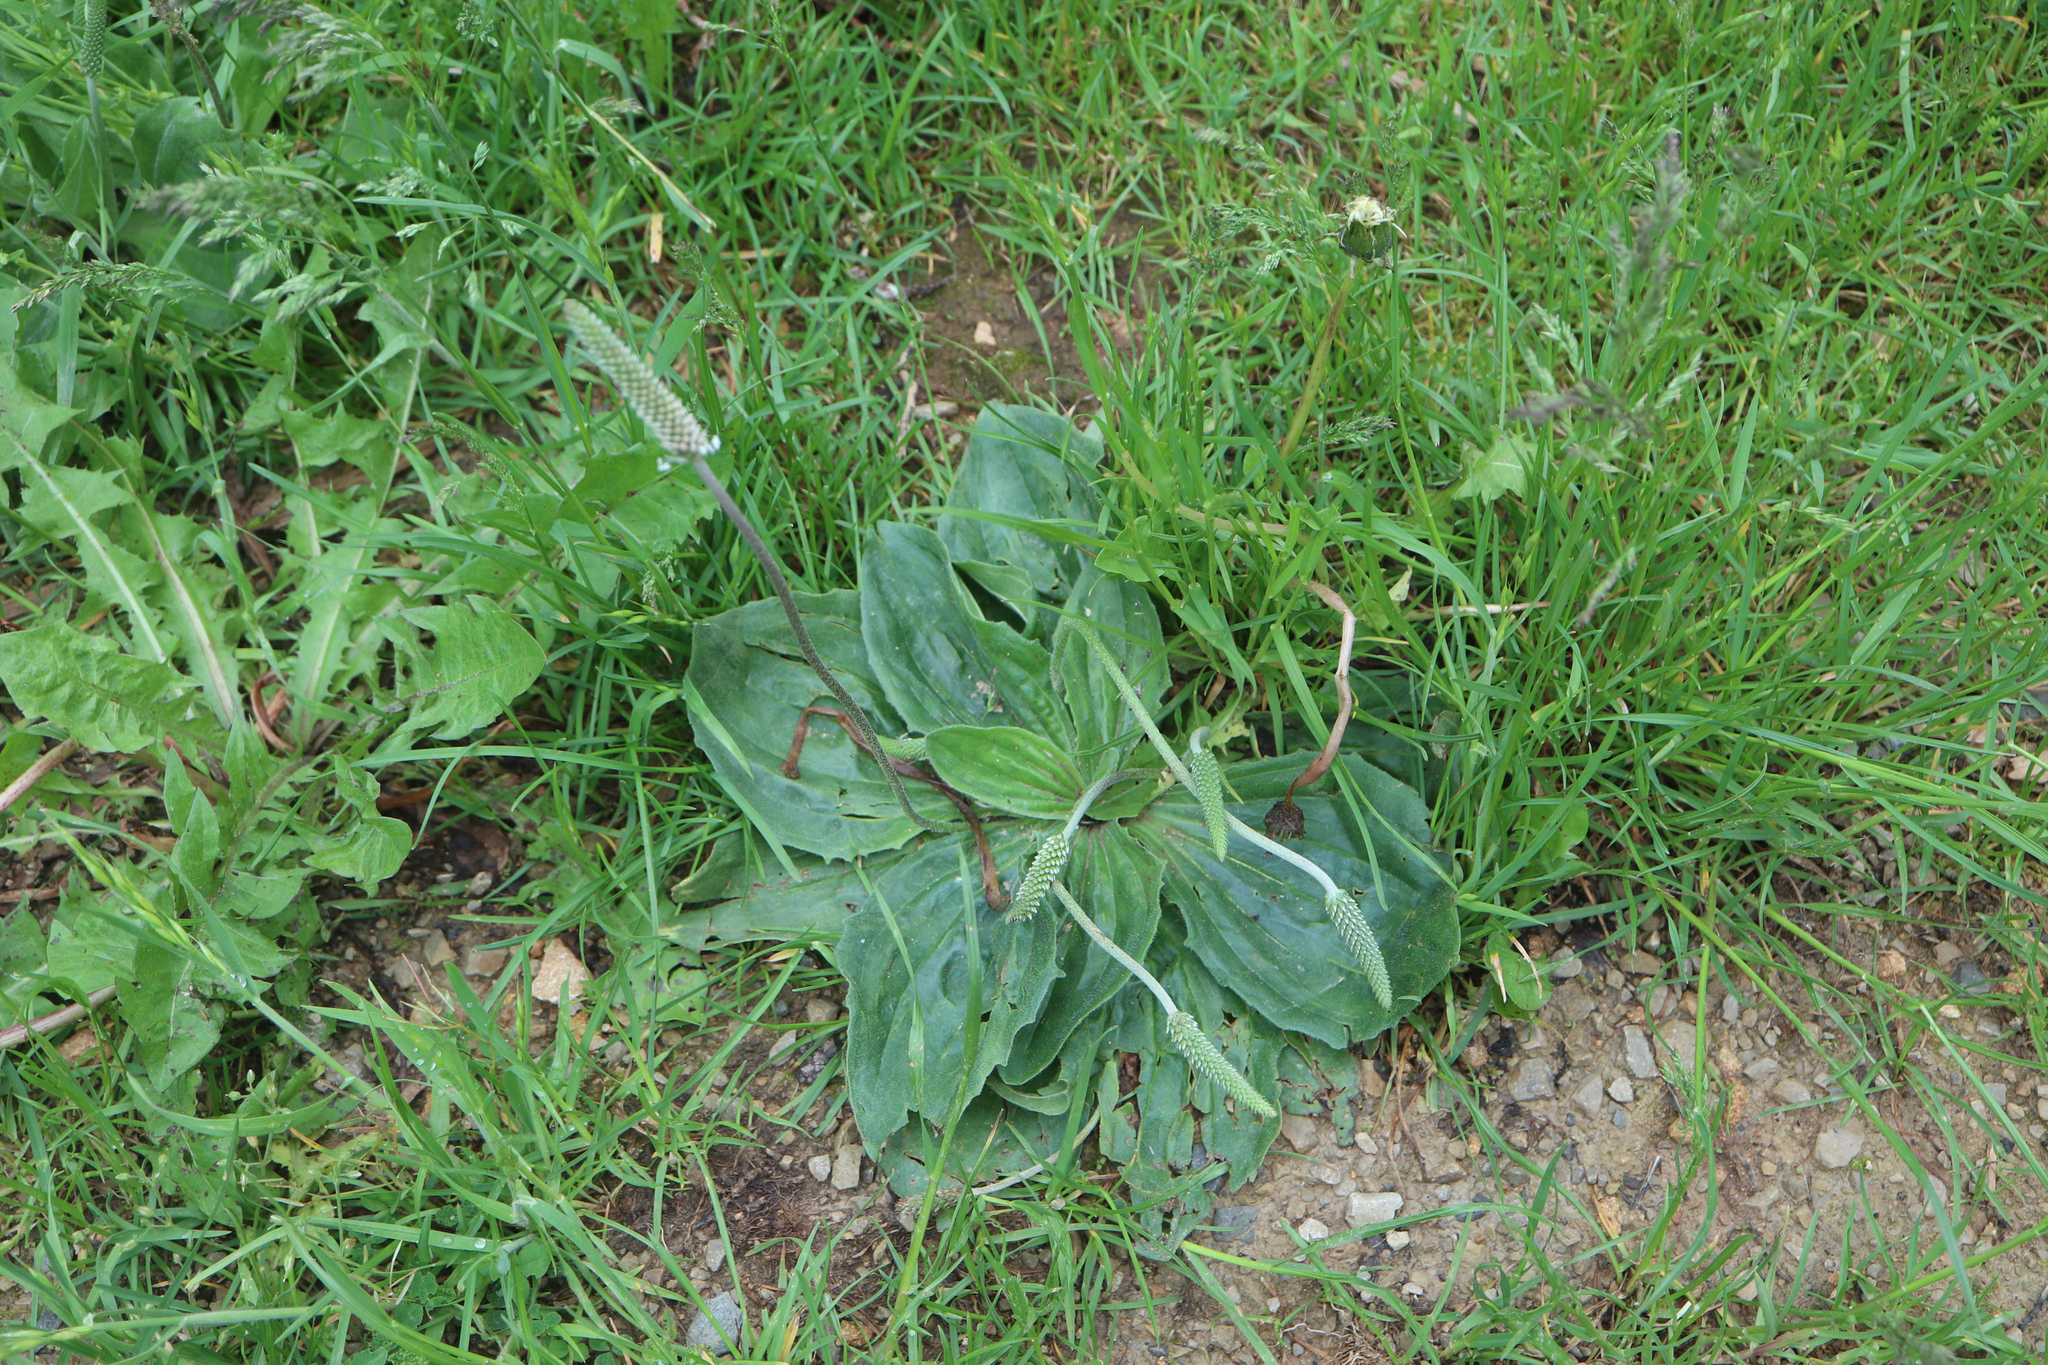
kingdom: Plantae
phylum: Tracheophyta
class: Magnoliopsida
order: Lamiales
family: Plantaginaceae
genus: Plantago
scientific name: Plantago media
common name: Hoary plantain
